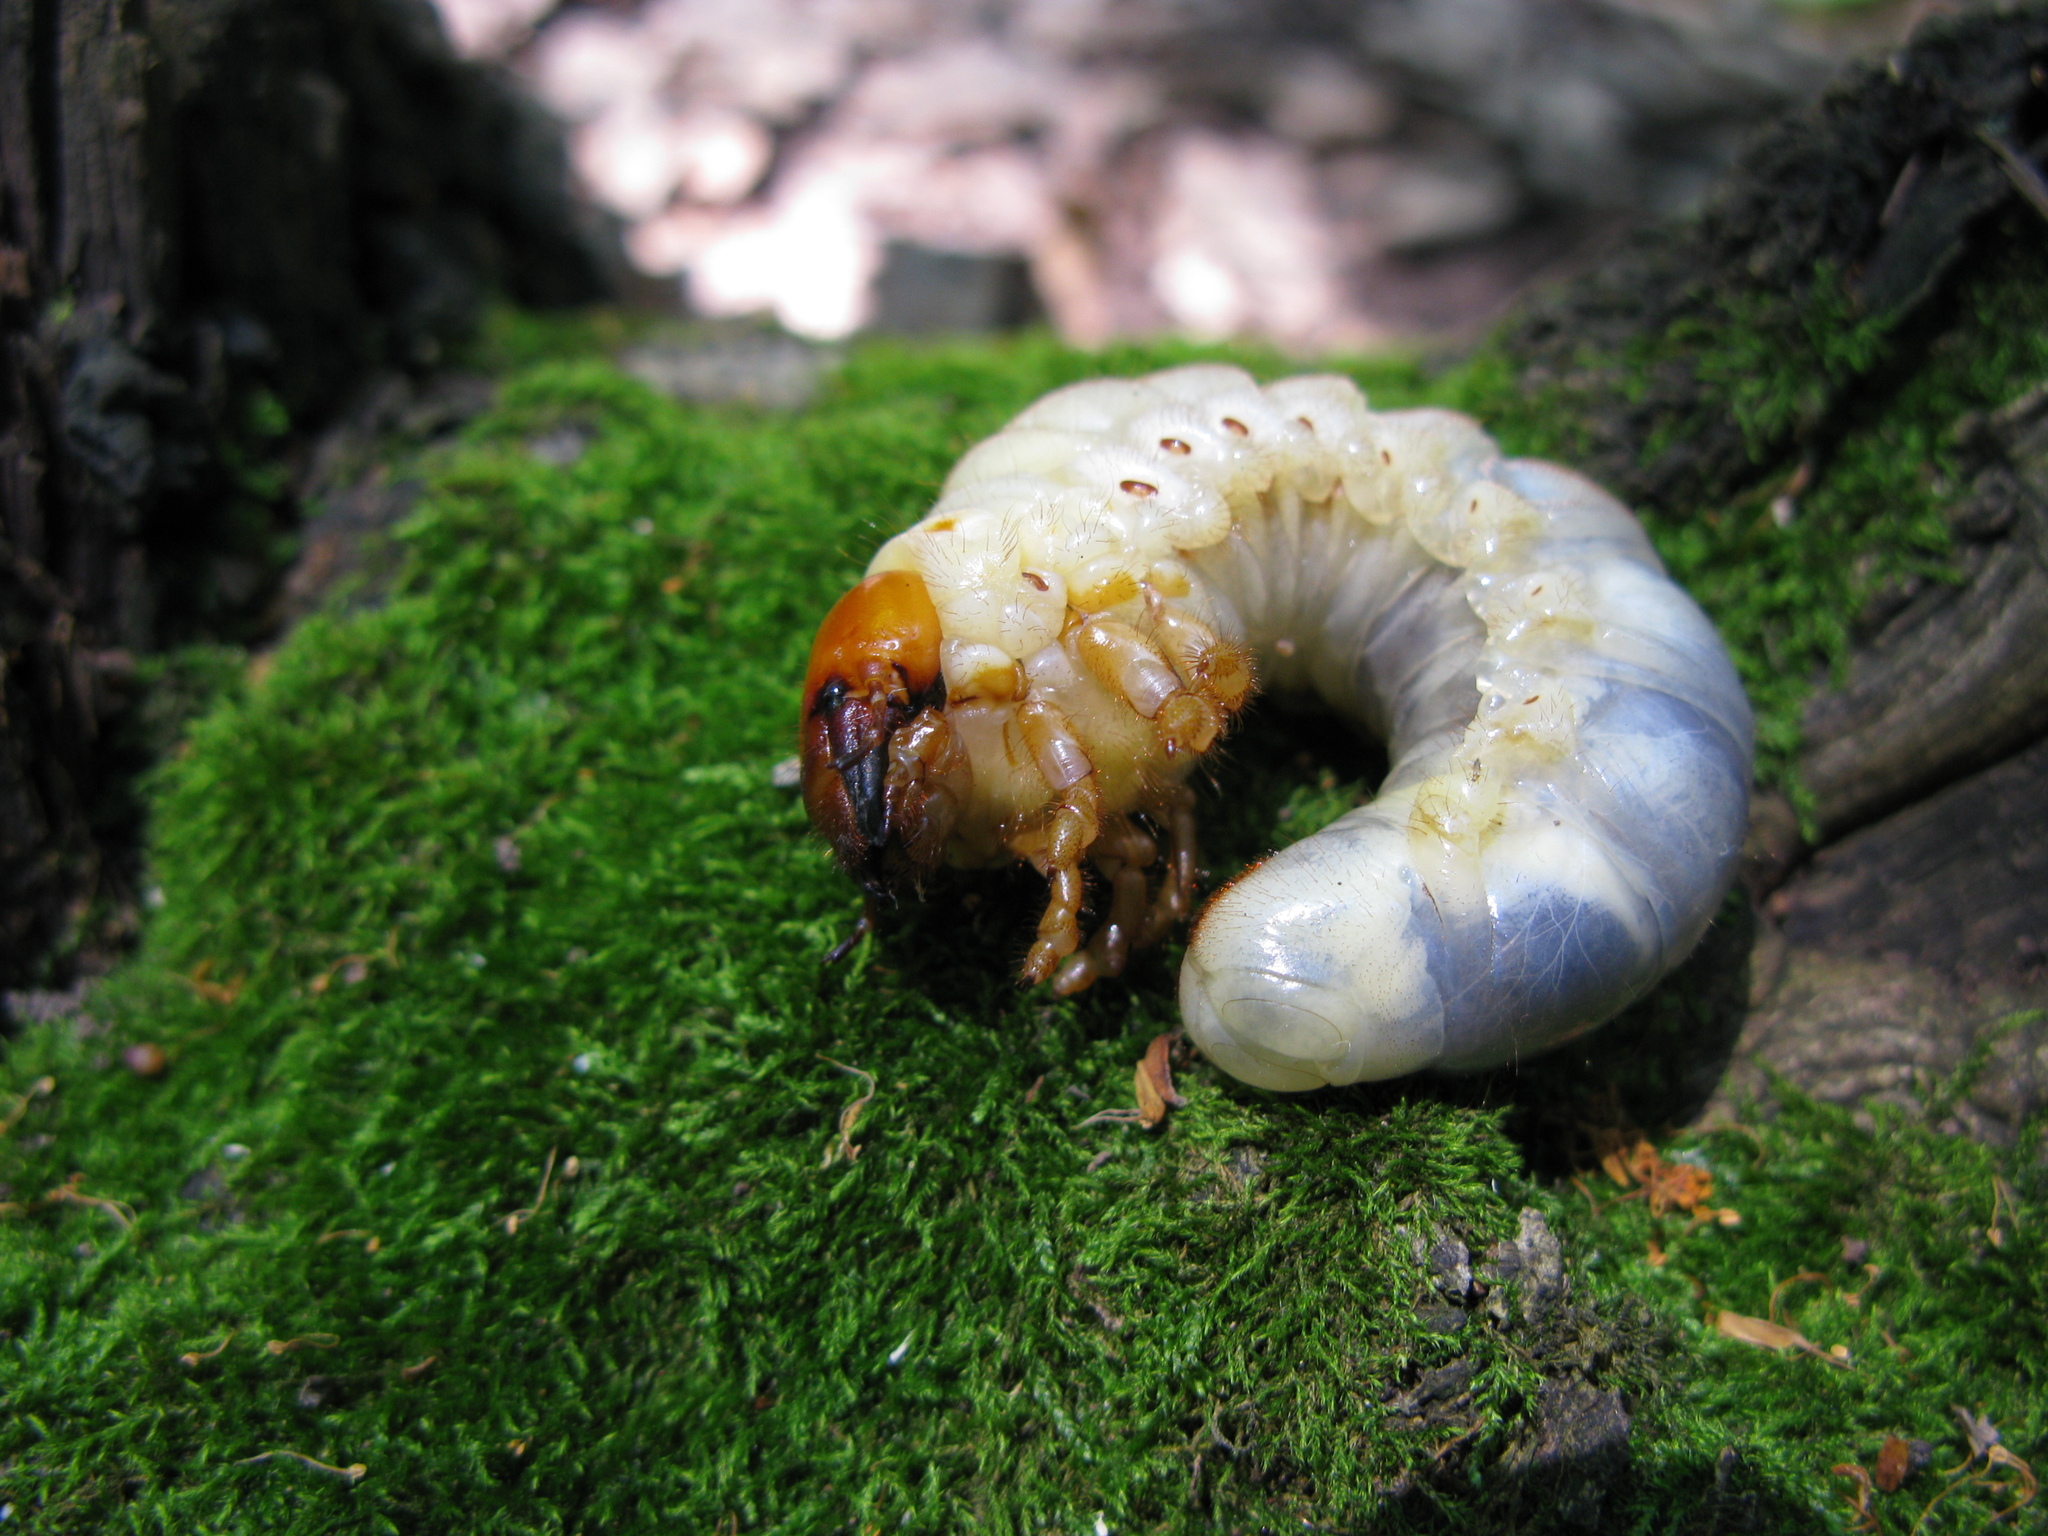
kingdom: Animalia
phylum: Arthropoda
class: Insecta
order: Coleoptera
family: Lucanidae
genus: Lucanus
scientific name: Lucanus cervus
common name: Stag beetle
